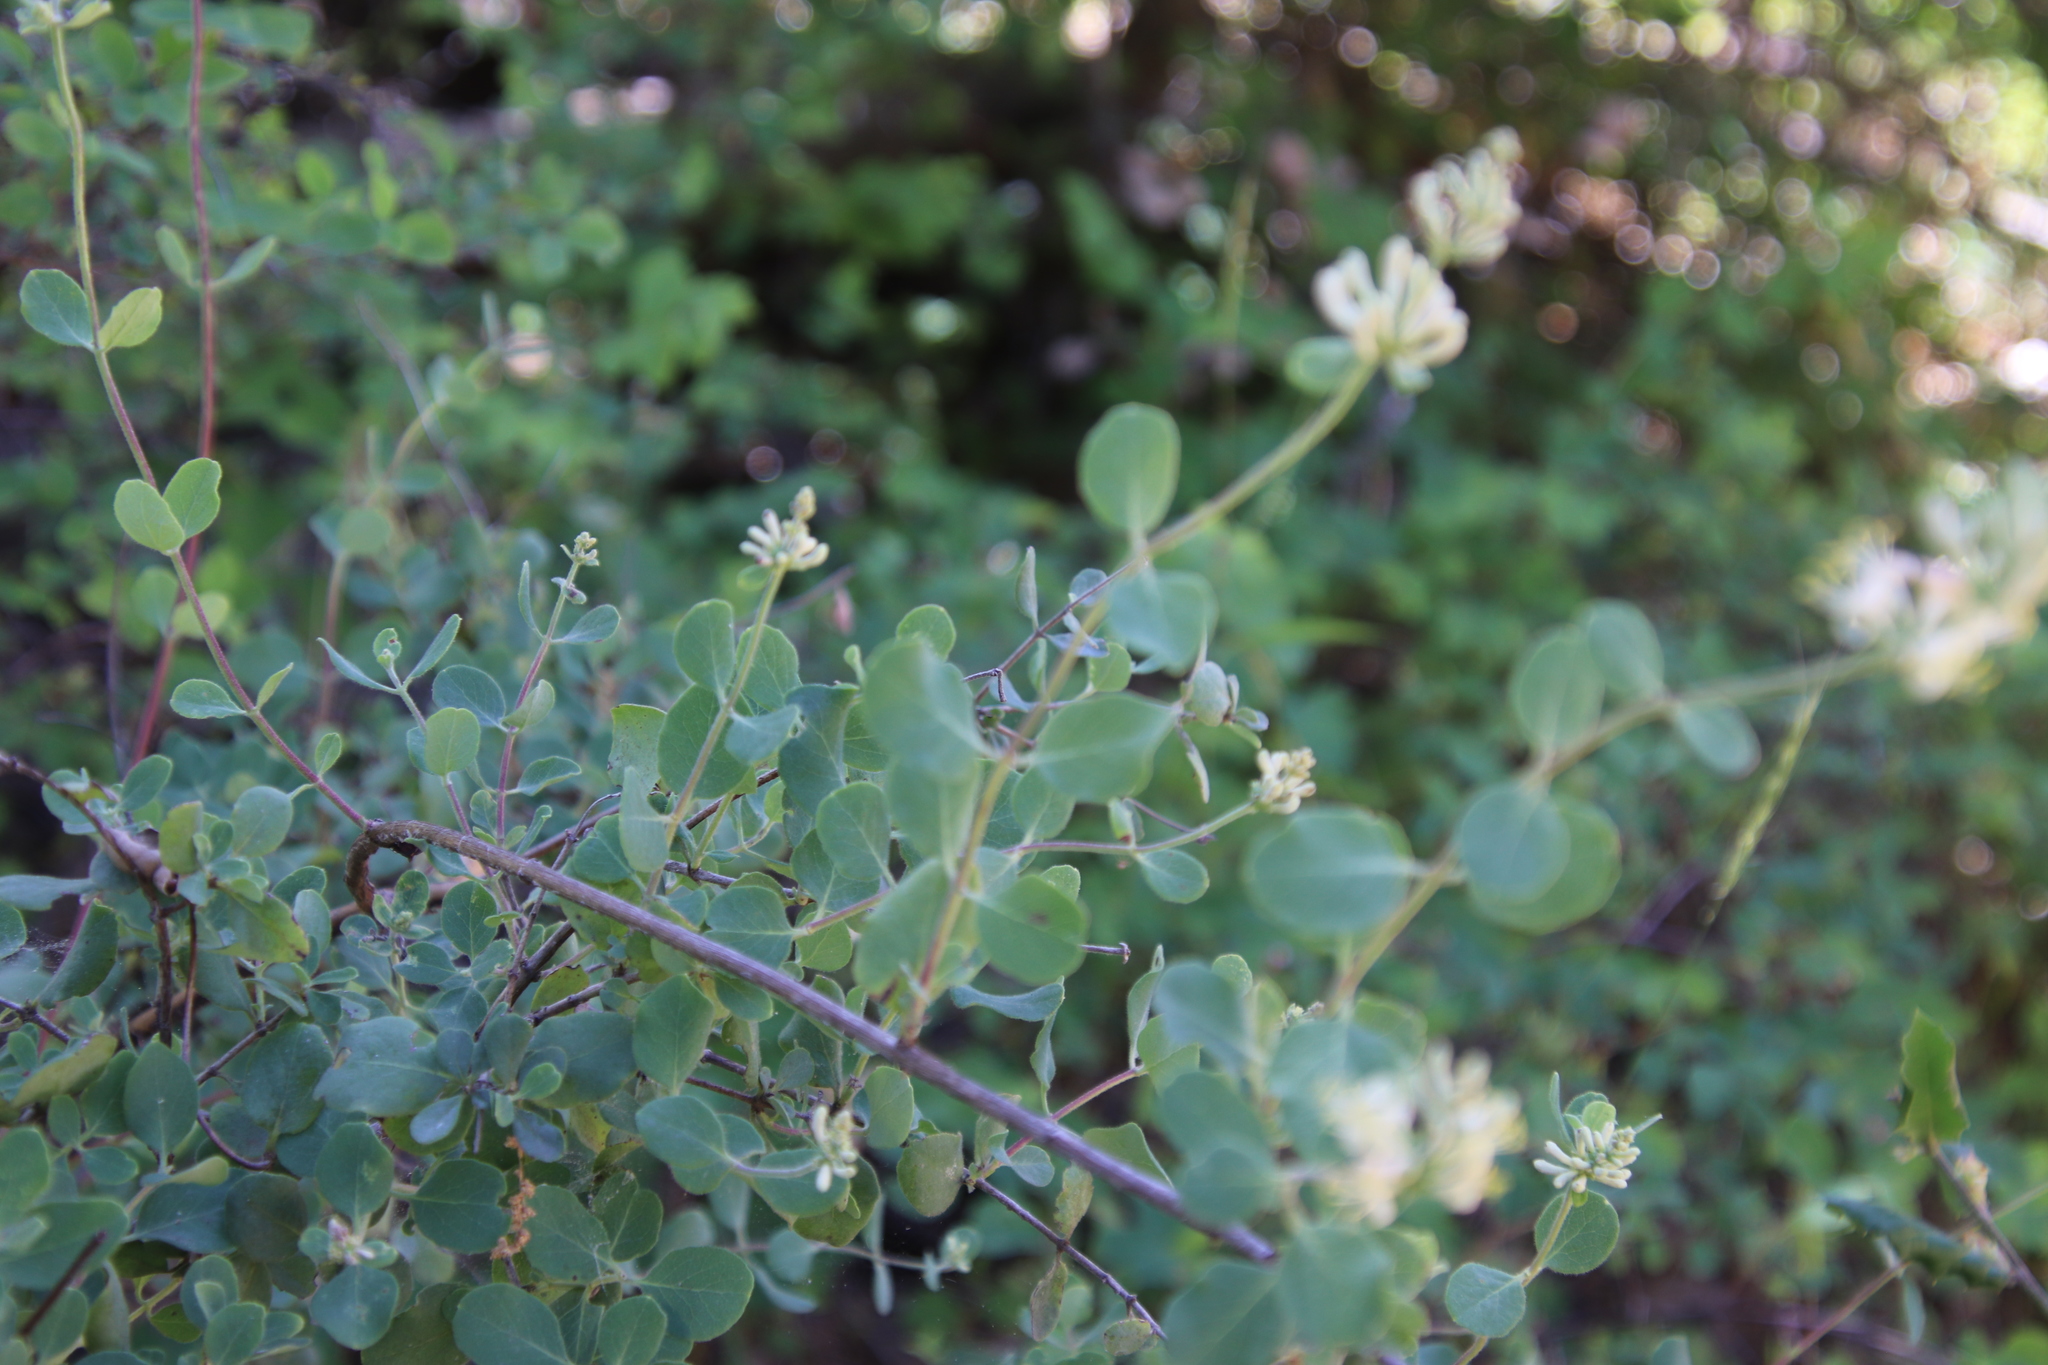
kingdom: Plantae
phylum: Tracheophyta
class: Magnoliopsida
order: Dipsacales
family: Caprifoliaceae
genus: Lonicera
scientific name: Lonicera subspicata
